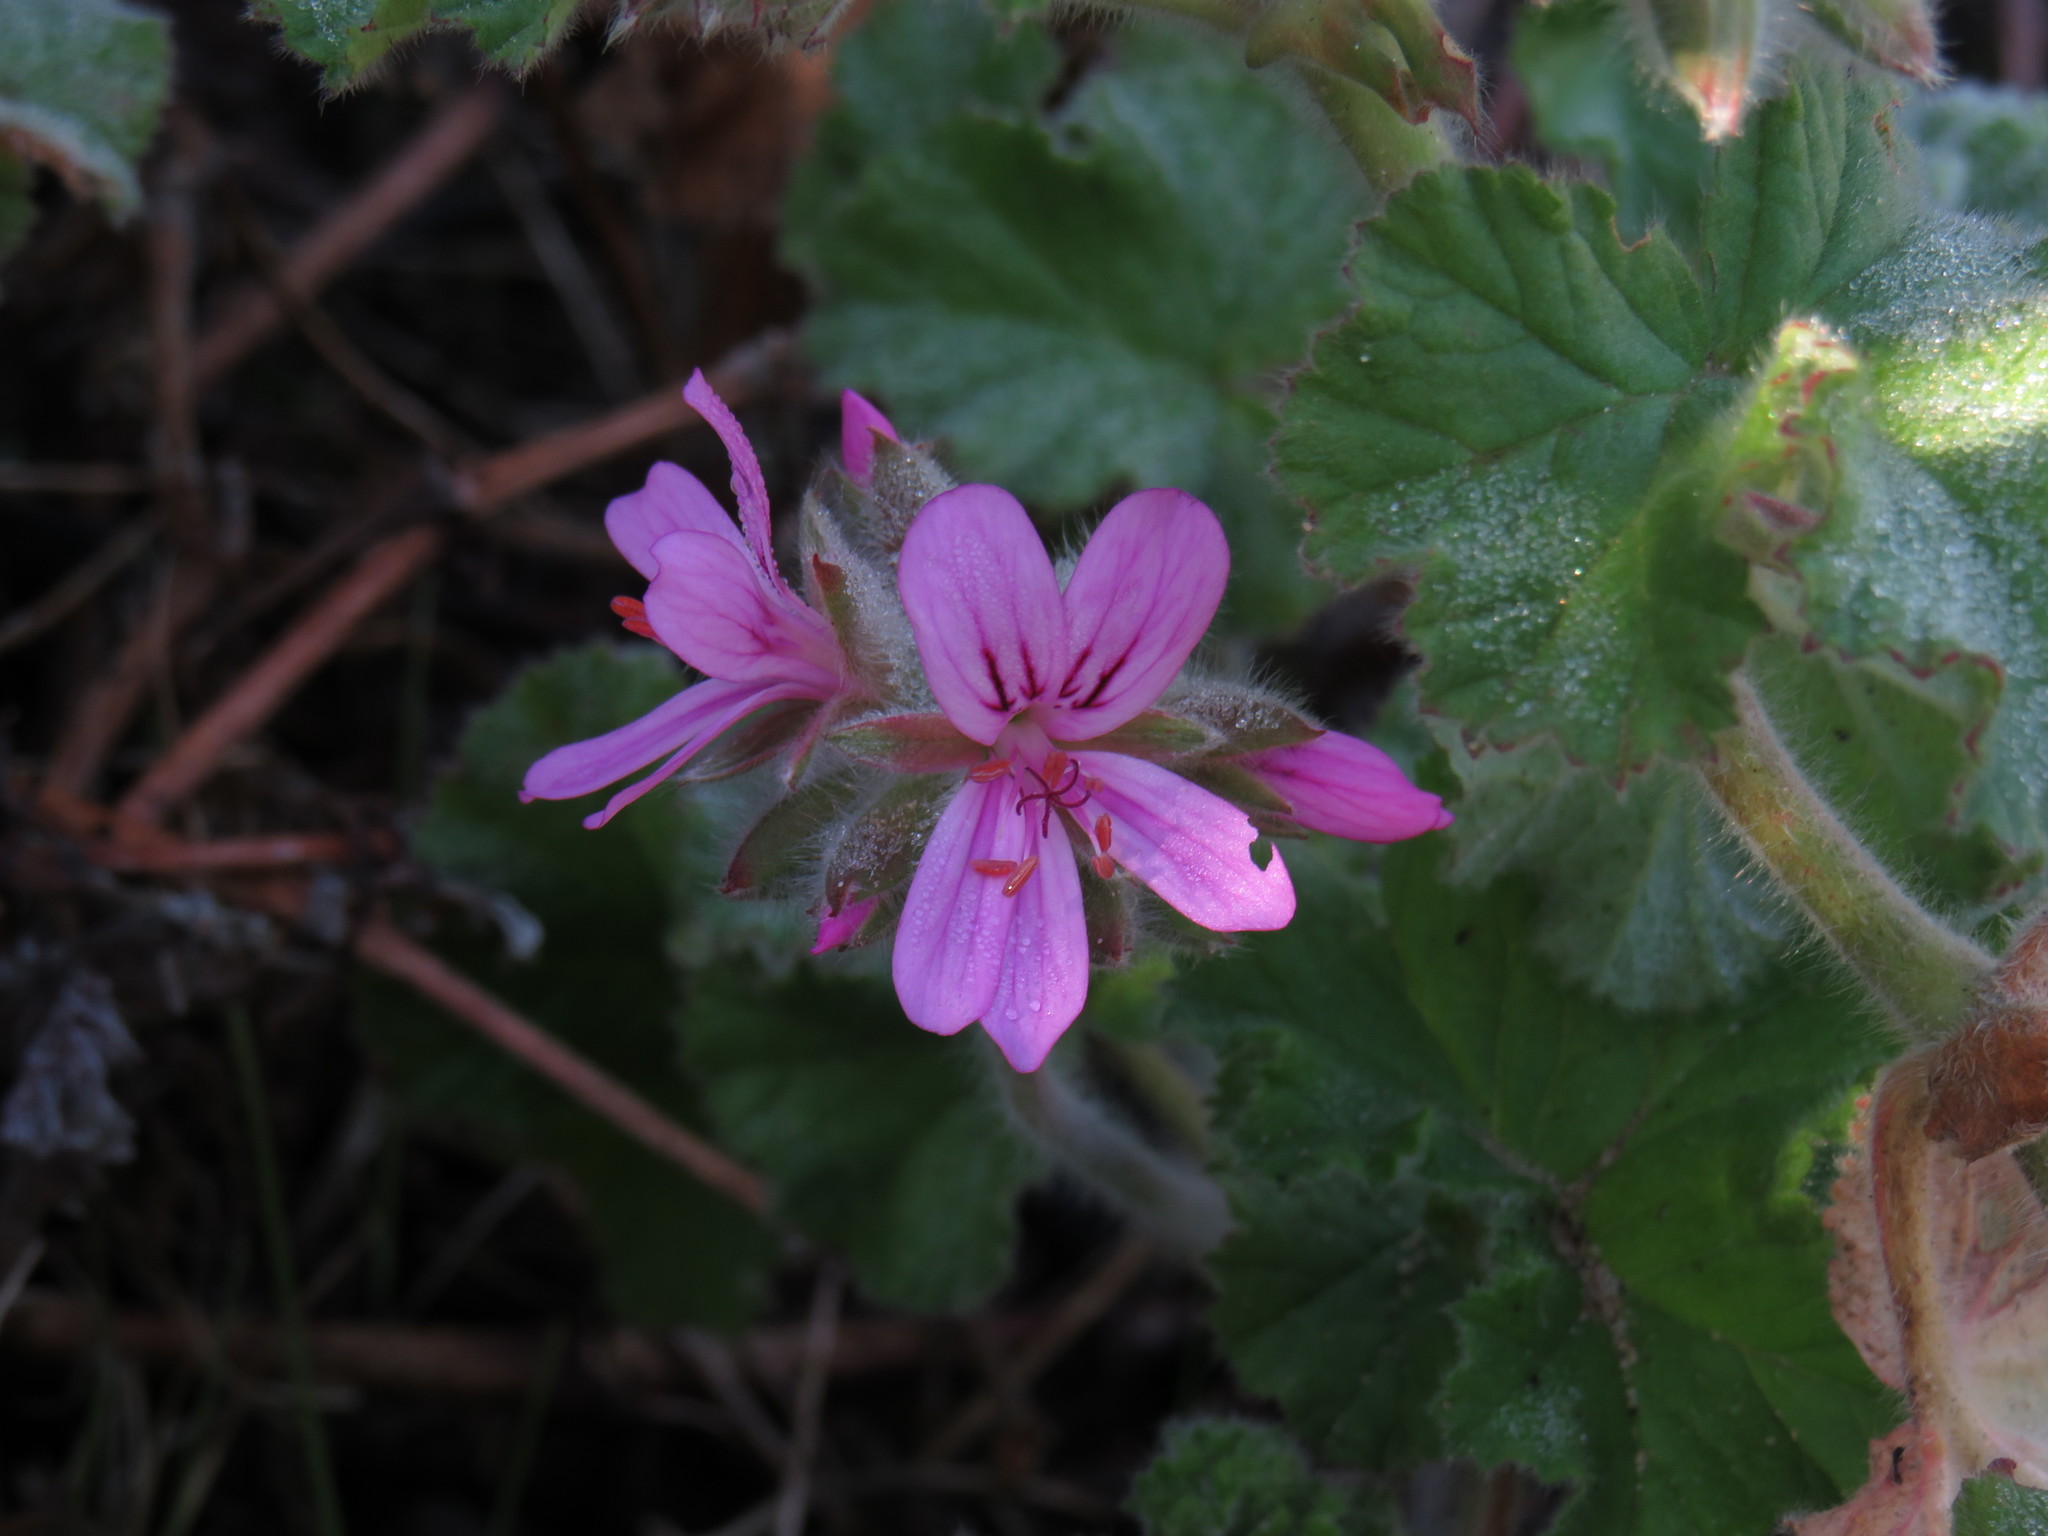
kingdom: Plantae
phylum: Tracheophyta
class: Magnoliopsida
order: Geraniales
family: Geraniaceae
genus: Pelargonium
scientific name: Pelargonium capitatum
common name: Rose scented geranium
